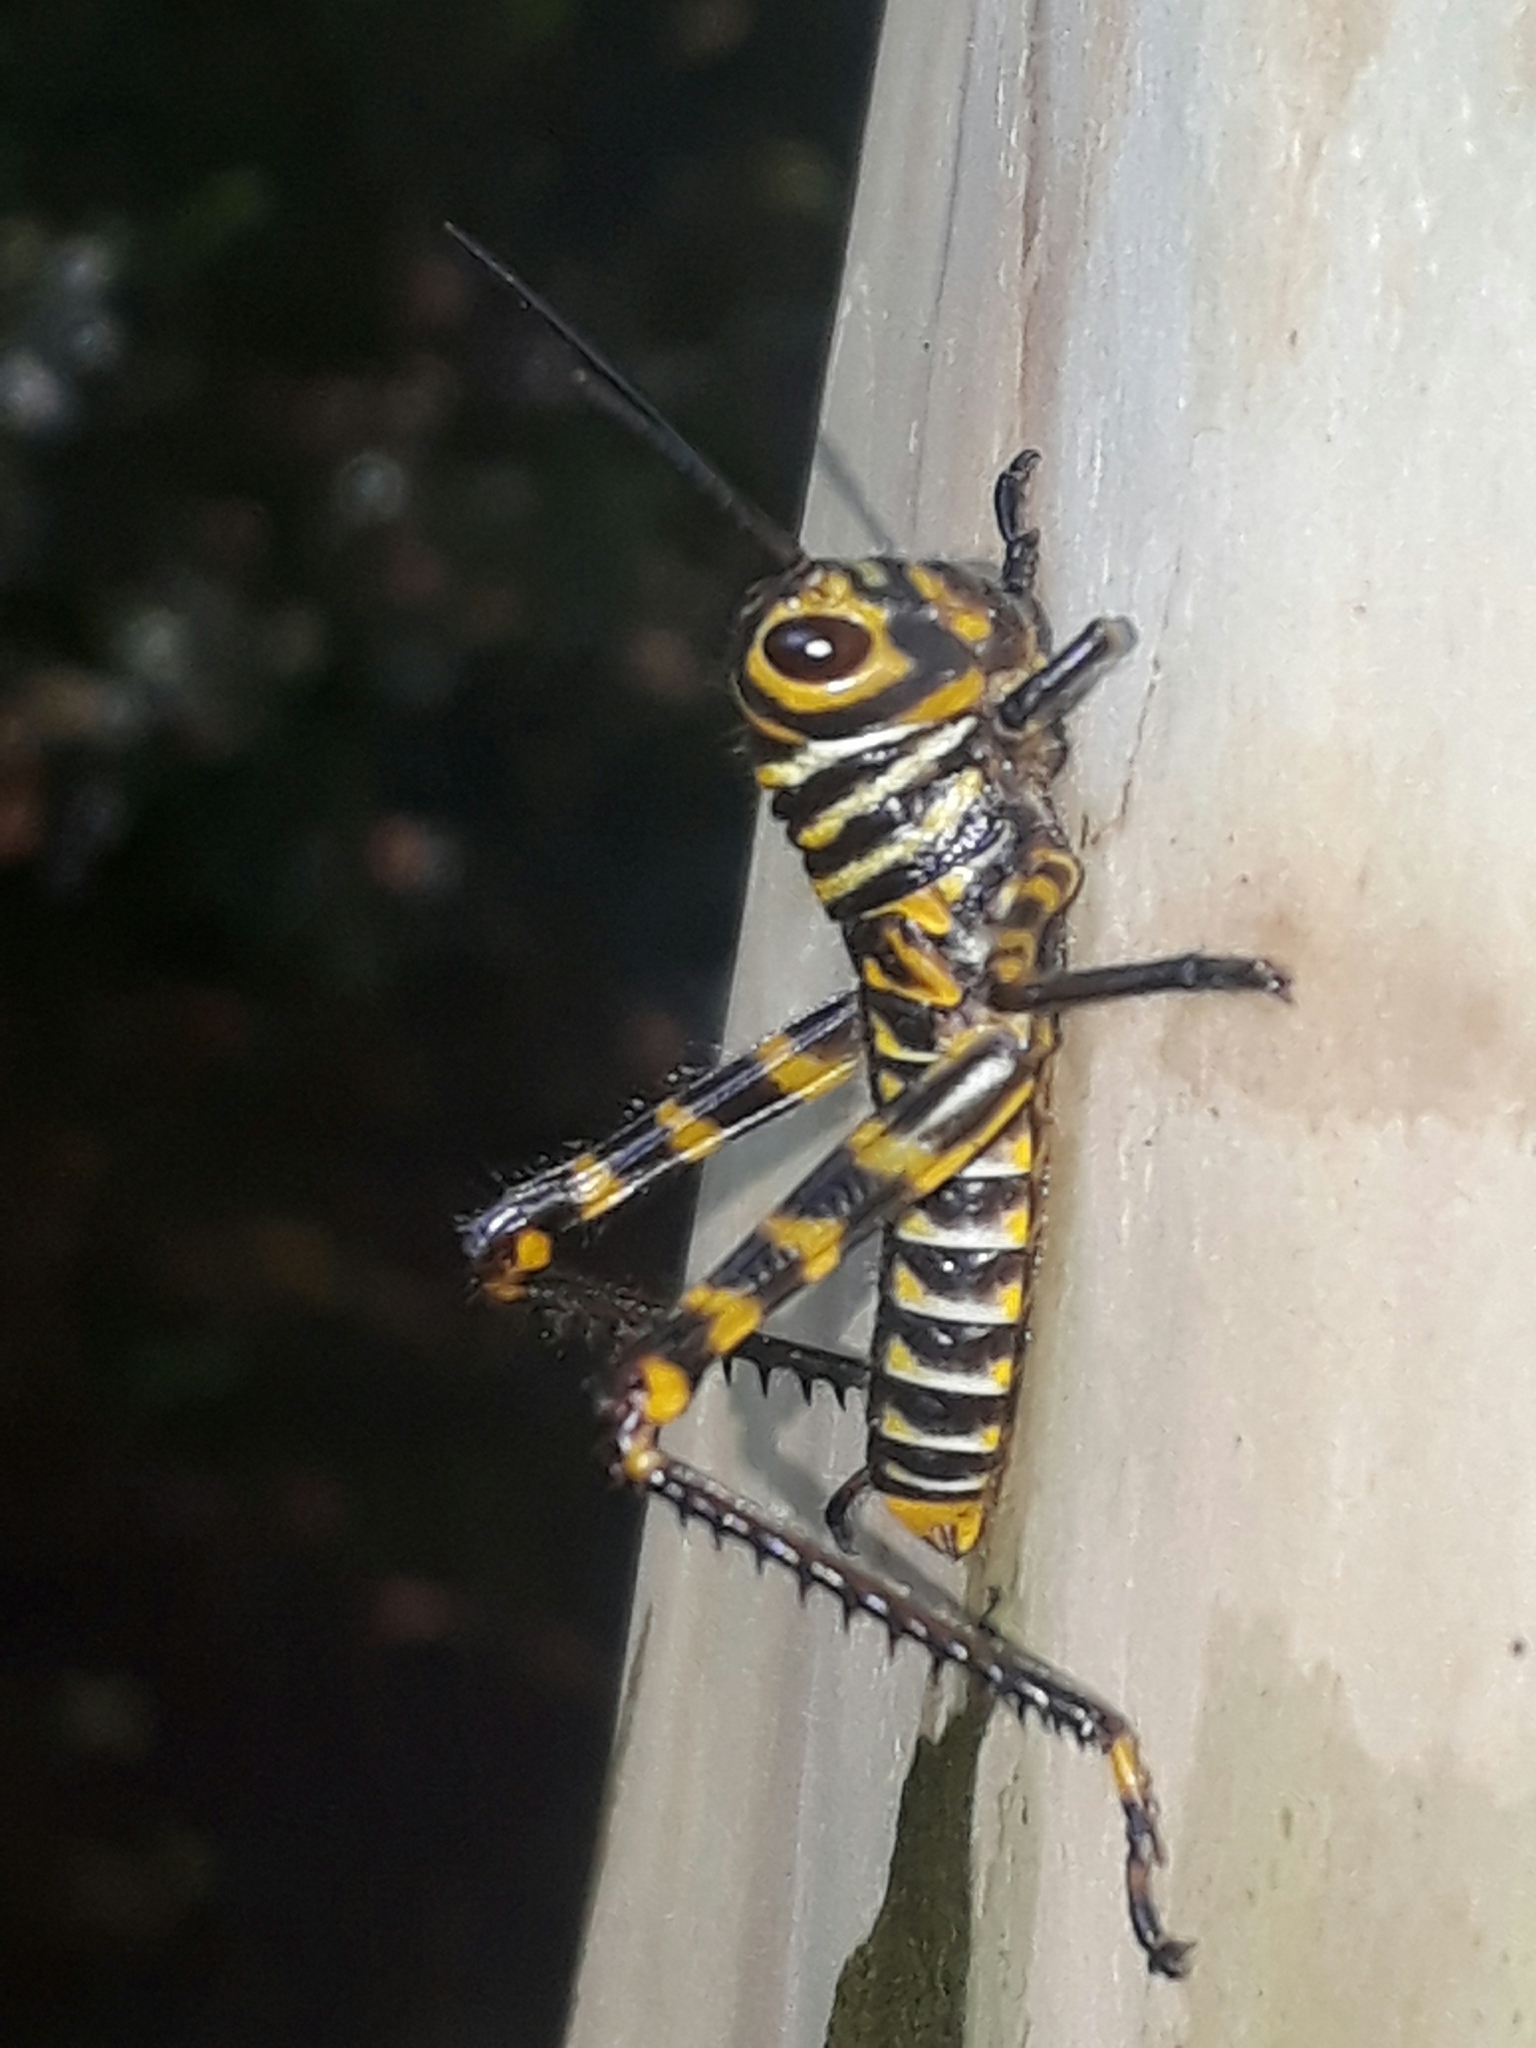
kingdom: Animalia
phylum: Arthropoda
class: Insecta
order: Orthoptera
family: Romaleidae
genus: Tropidacris
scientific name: Tropidacris cristata
